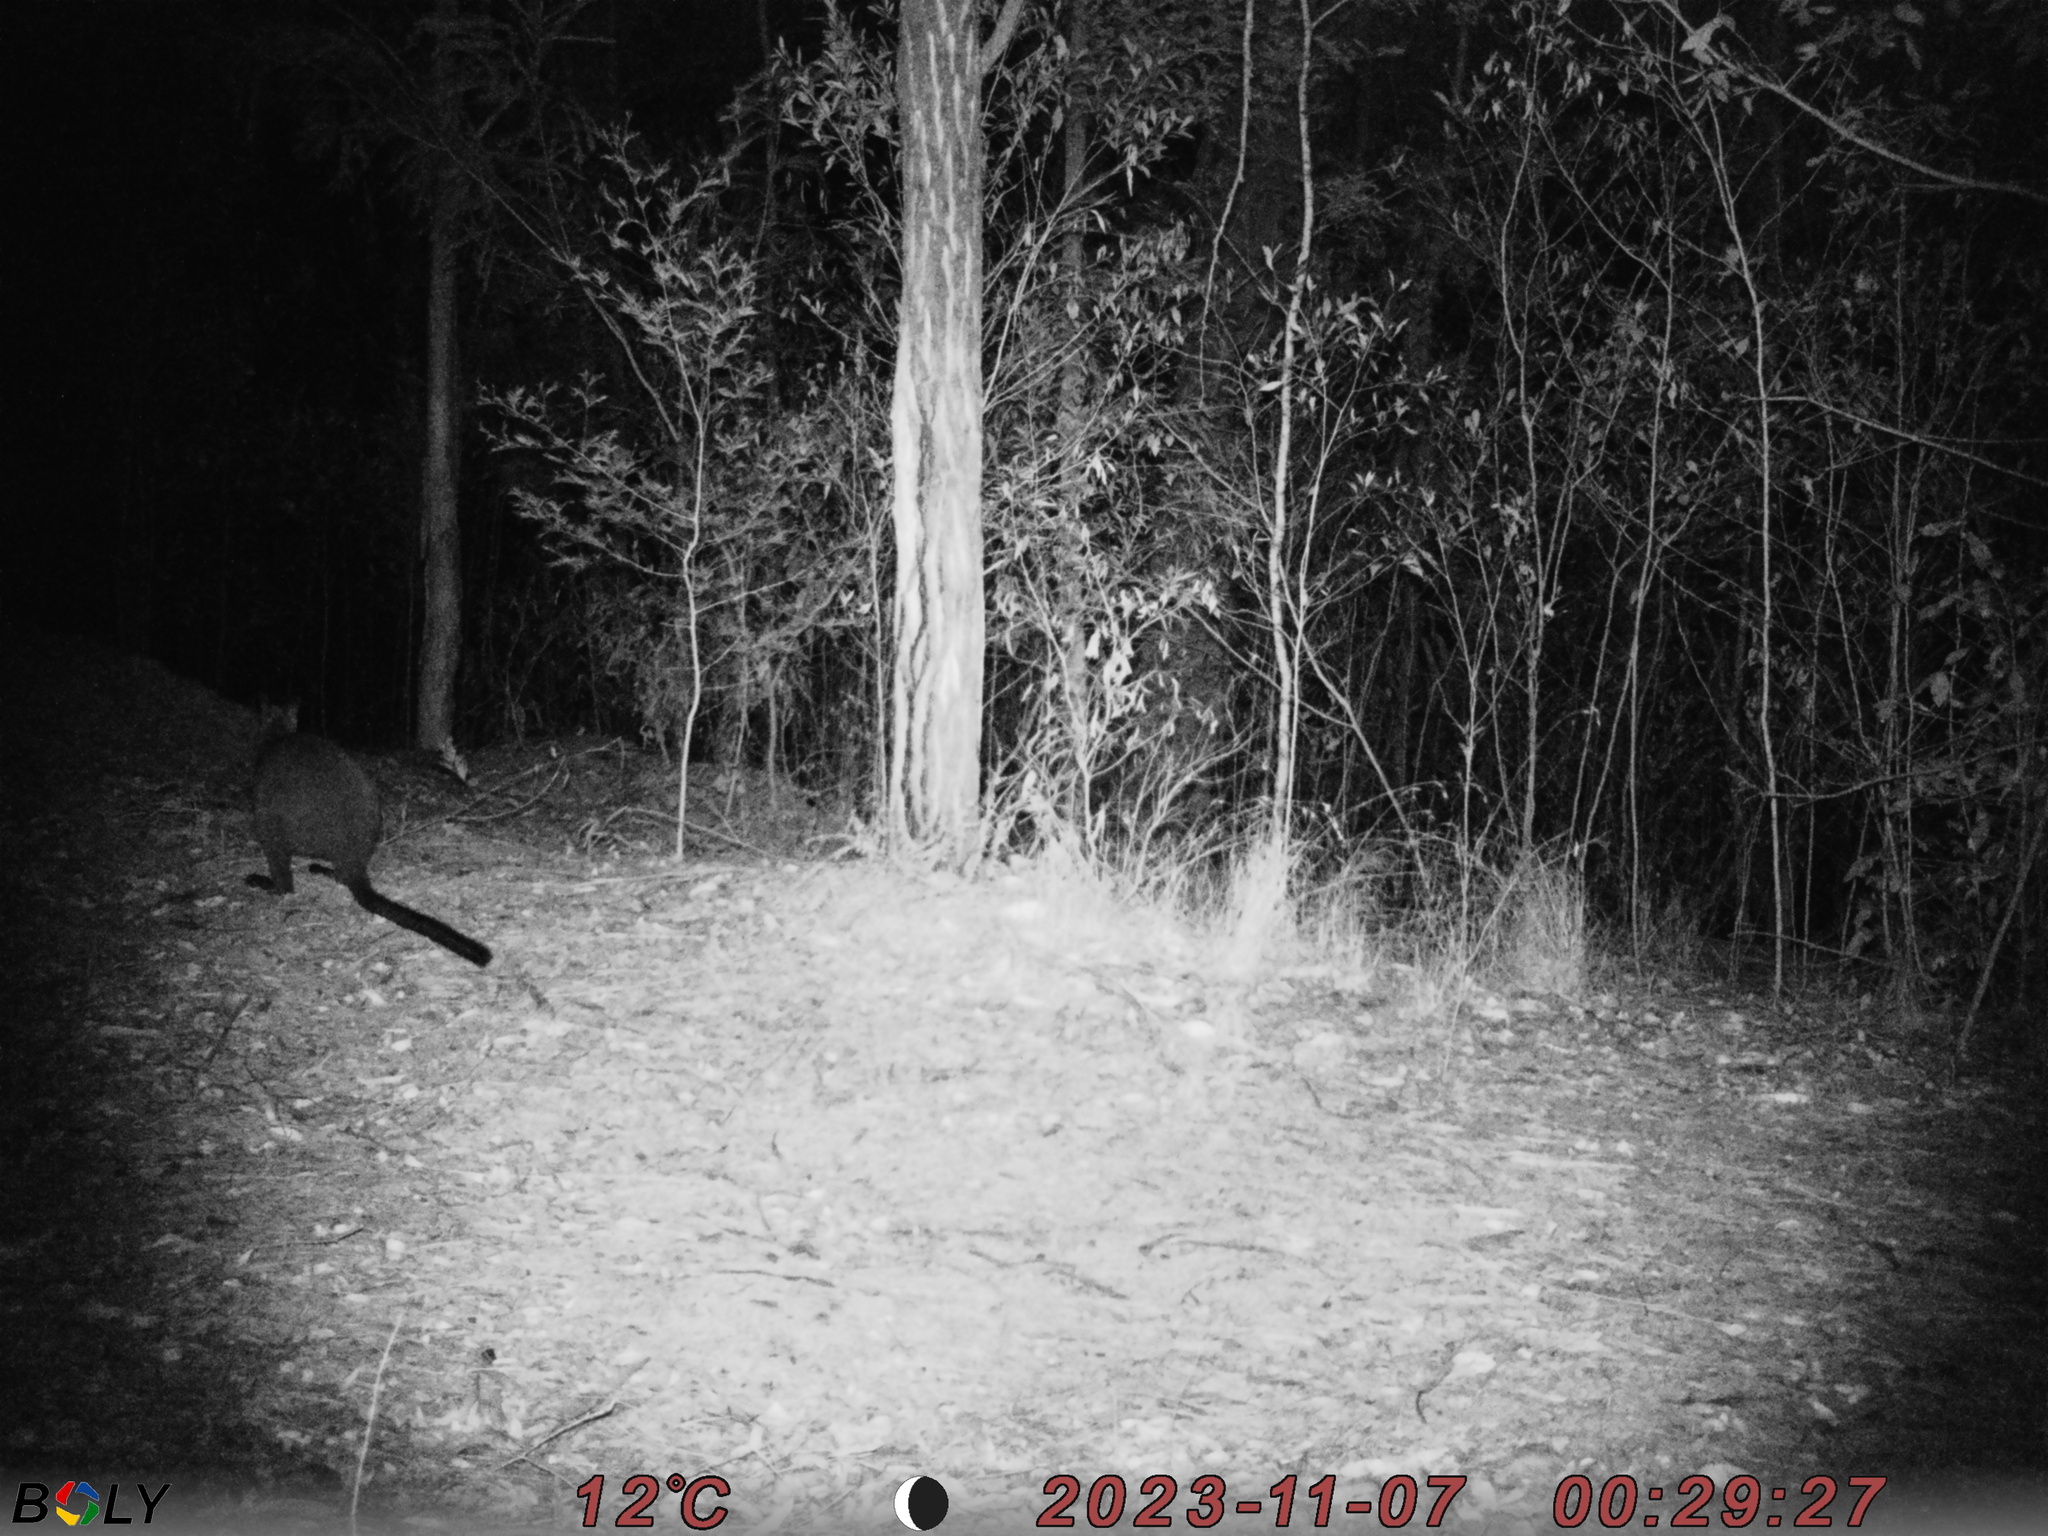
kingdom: Animalia
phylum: Chordata
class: Mammalia
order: Diprotodontia
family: Macropodidae
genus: Wallabia
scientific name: Wallabia bicolor
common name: Swamp wallaby
